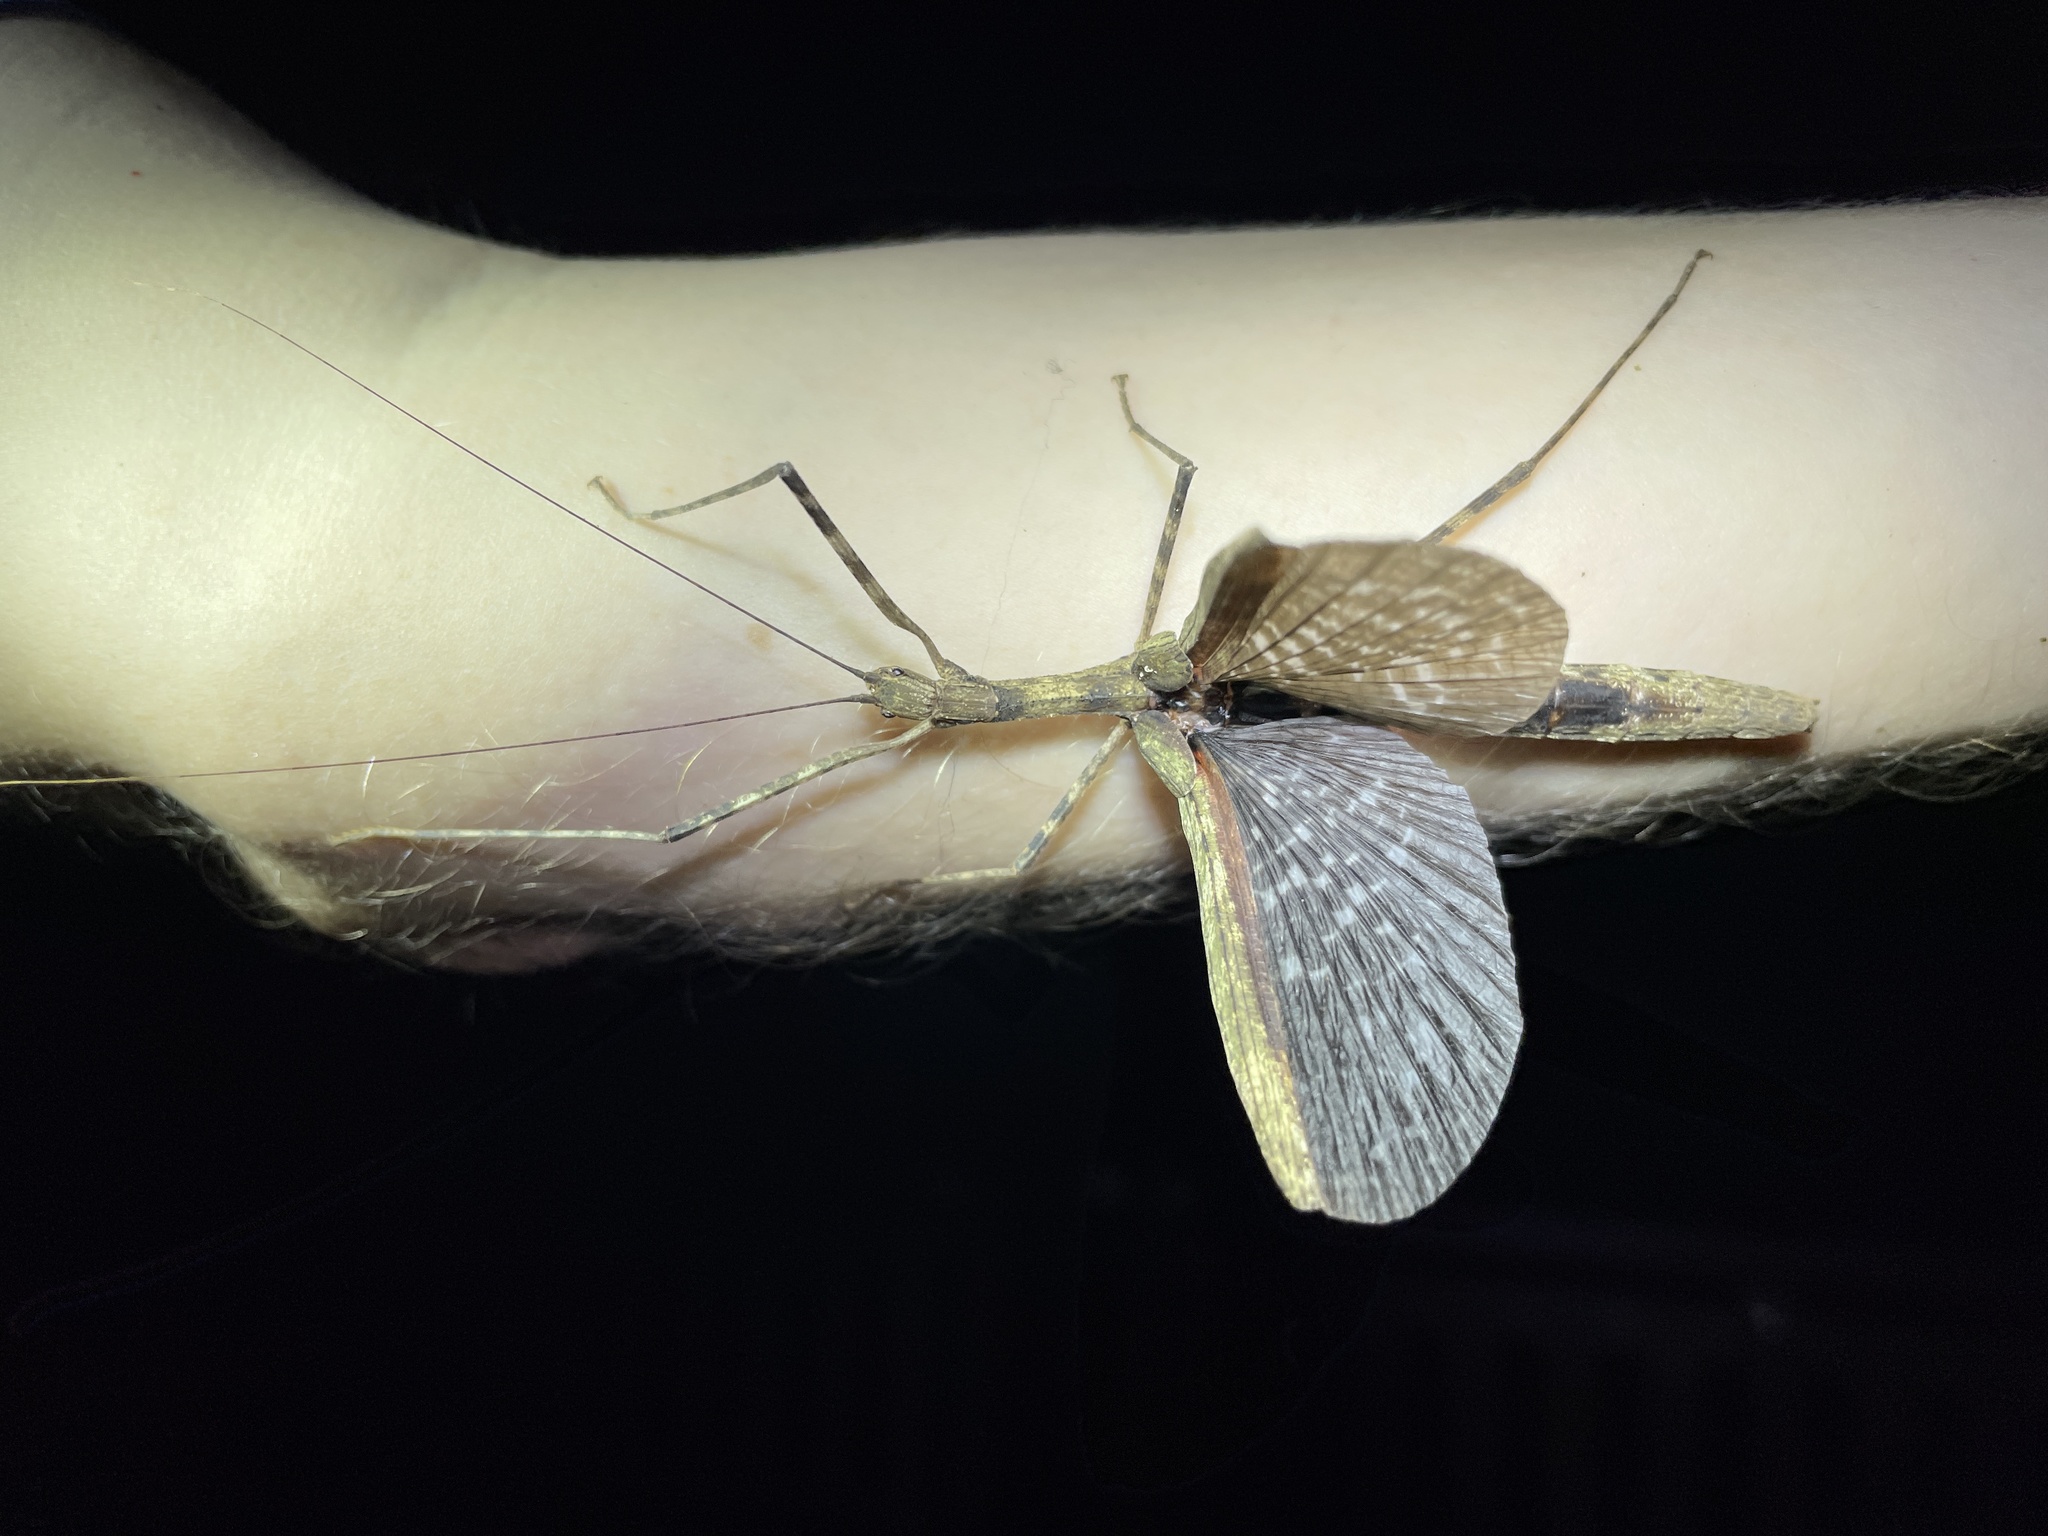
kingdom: Animalia
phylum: Arthropoda
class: Insecta
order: Phasmida
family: Lonchodidae
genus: Maculonecroscia
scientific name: Maculonecroscia shukayi
